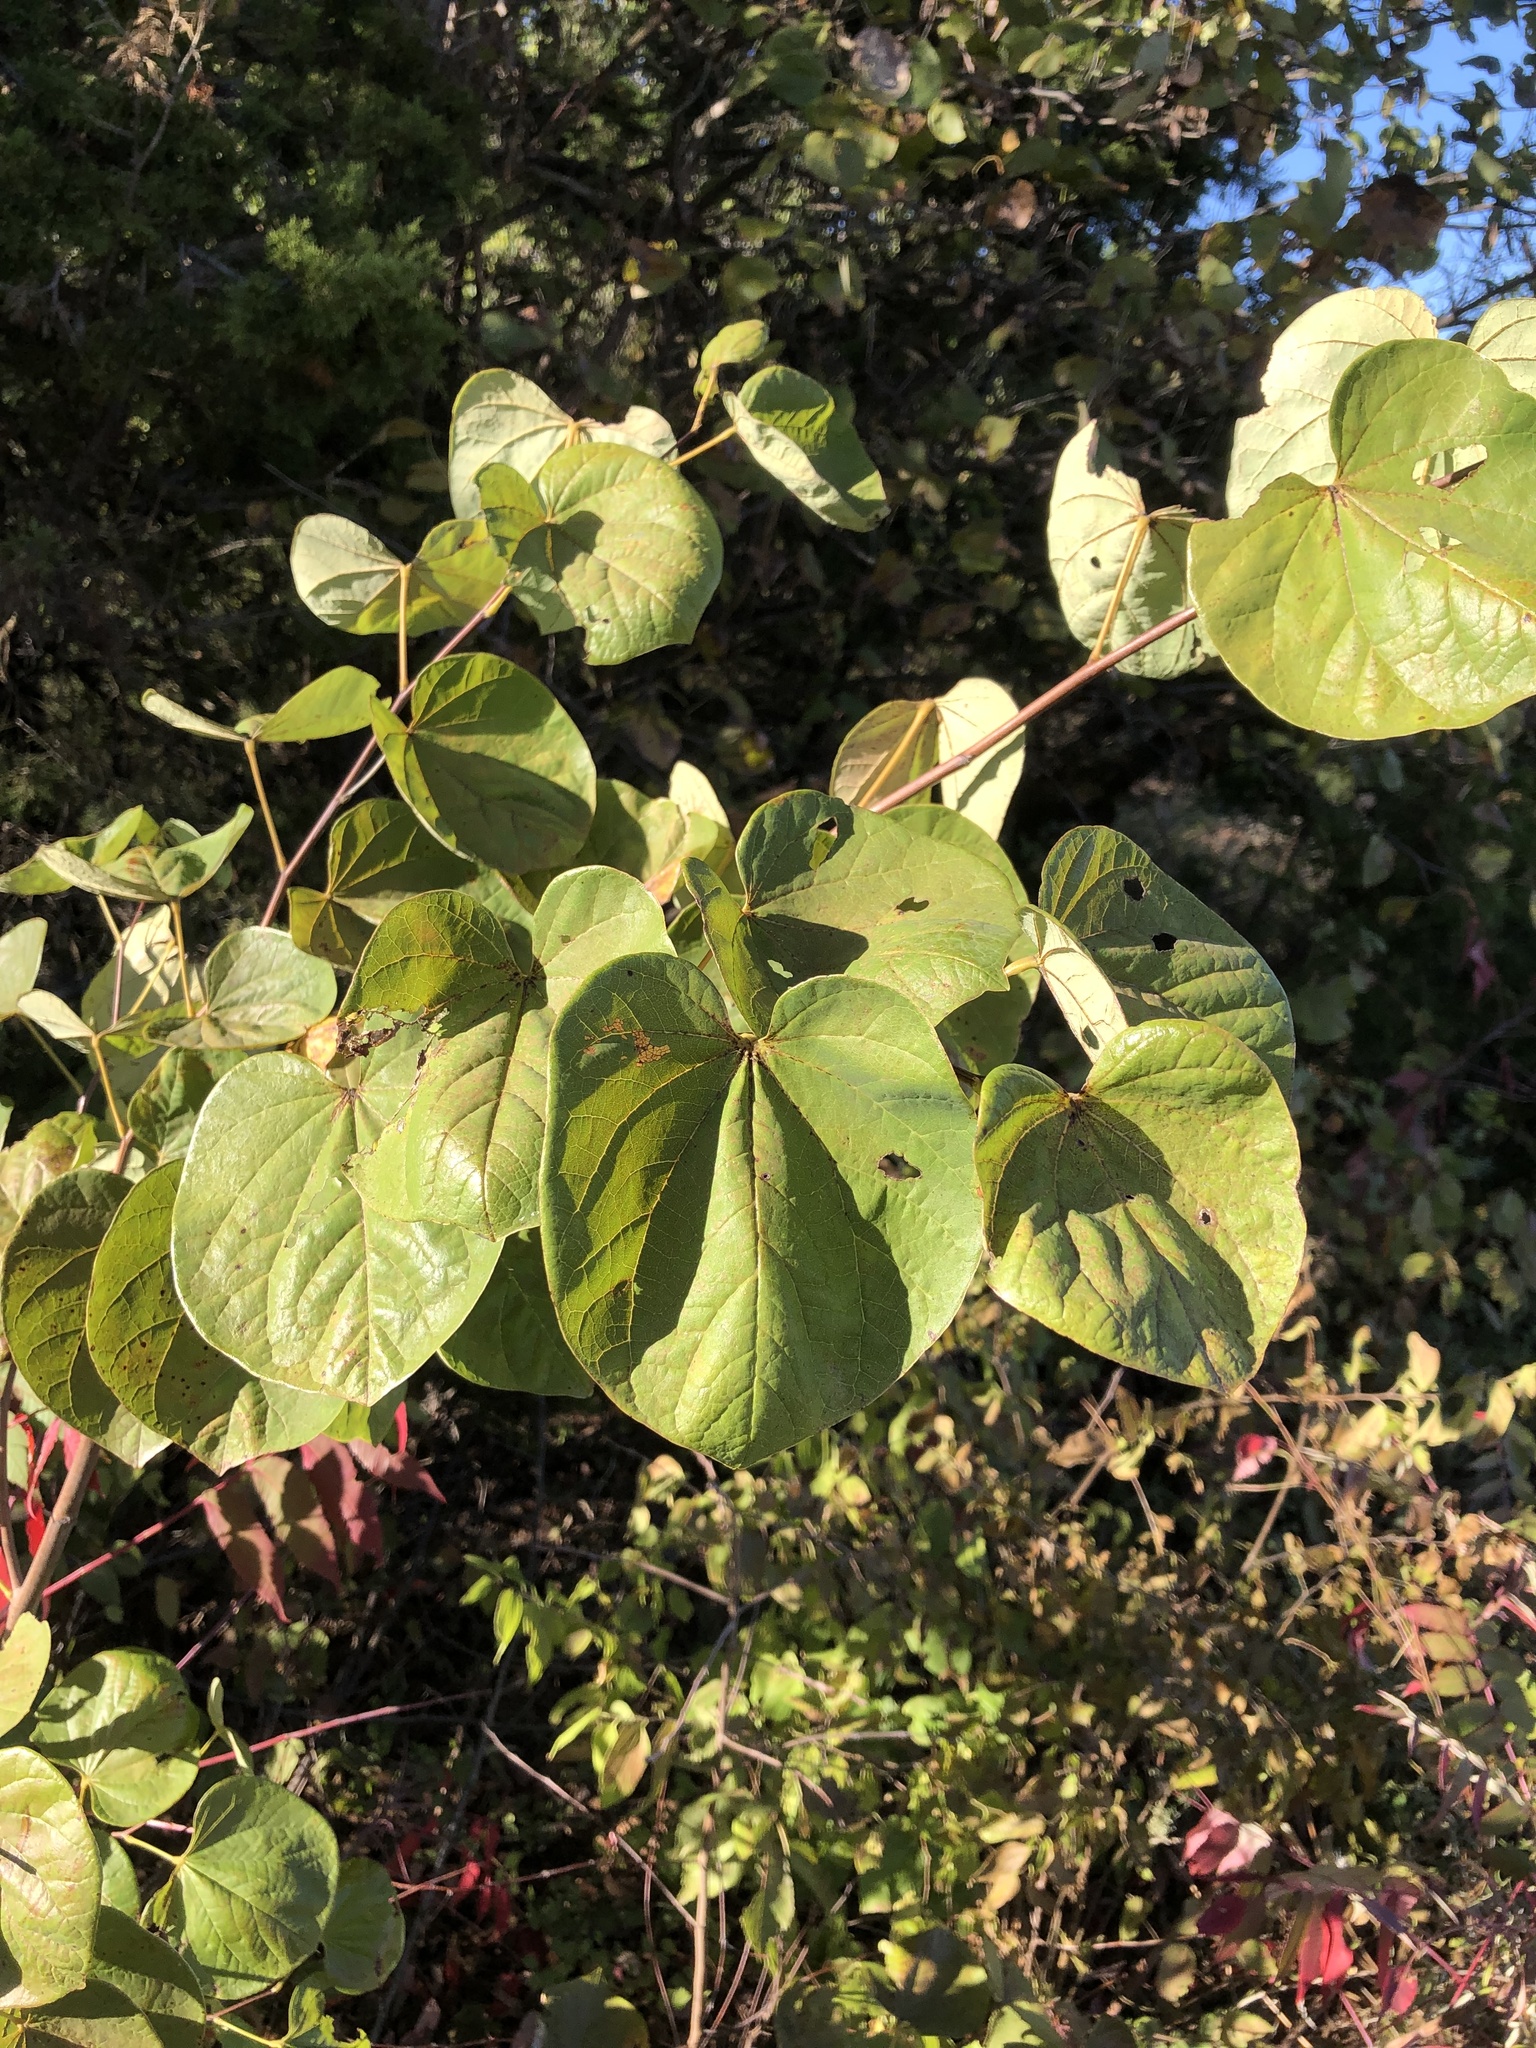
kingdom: Plantae
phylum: Tracheophyta
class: Magnoliopsida
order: Fabales
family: Fabaceae
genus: Cercis
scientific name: Cercis canadensis
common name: Eastern redbud
